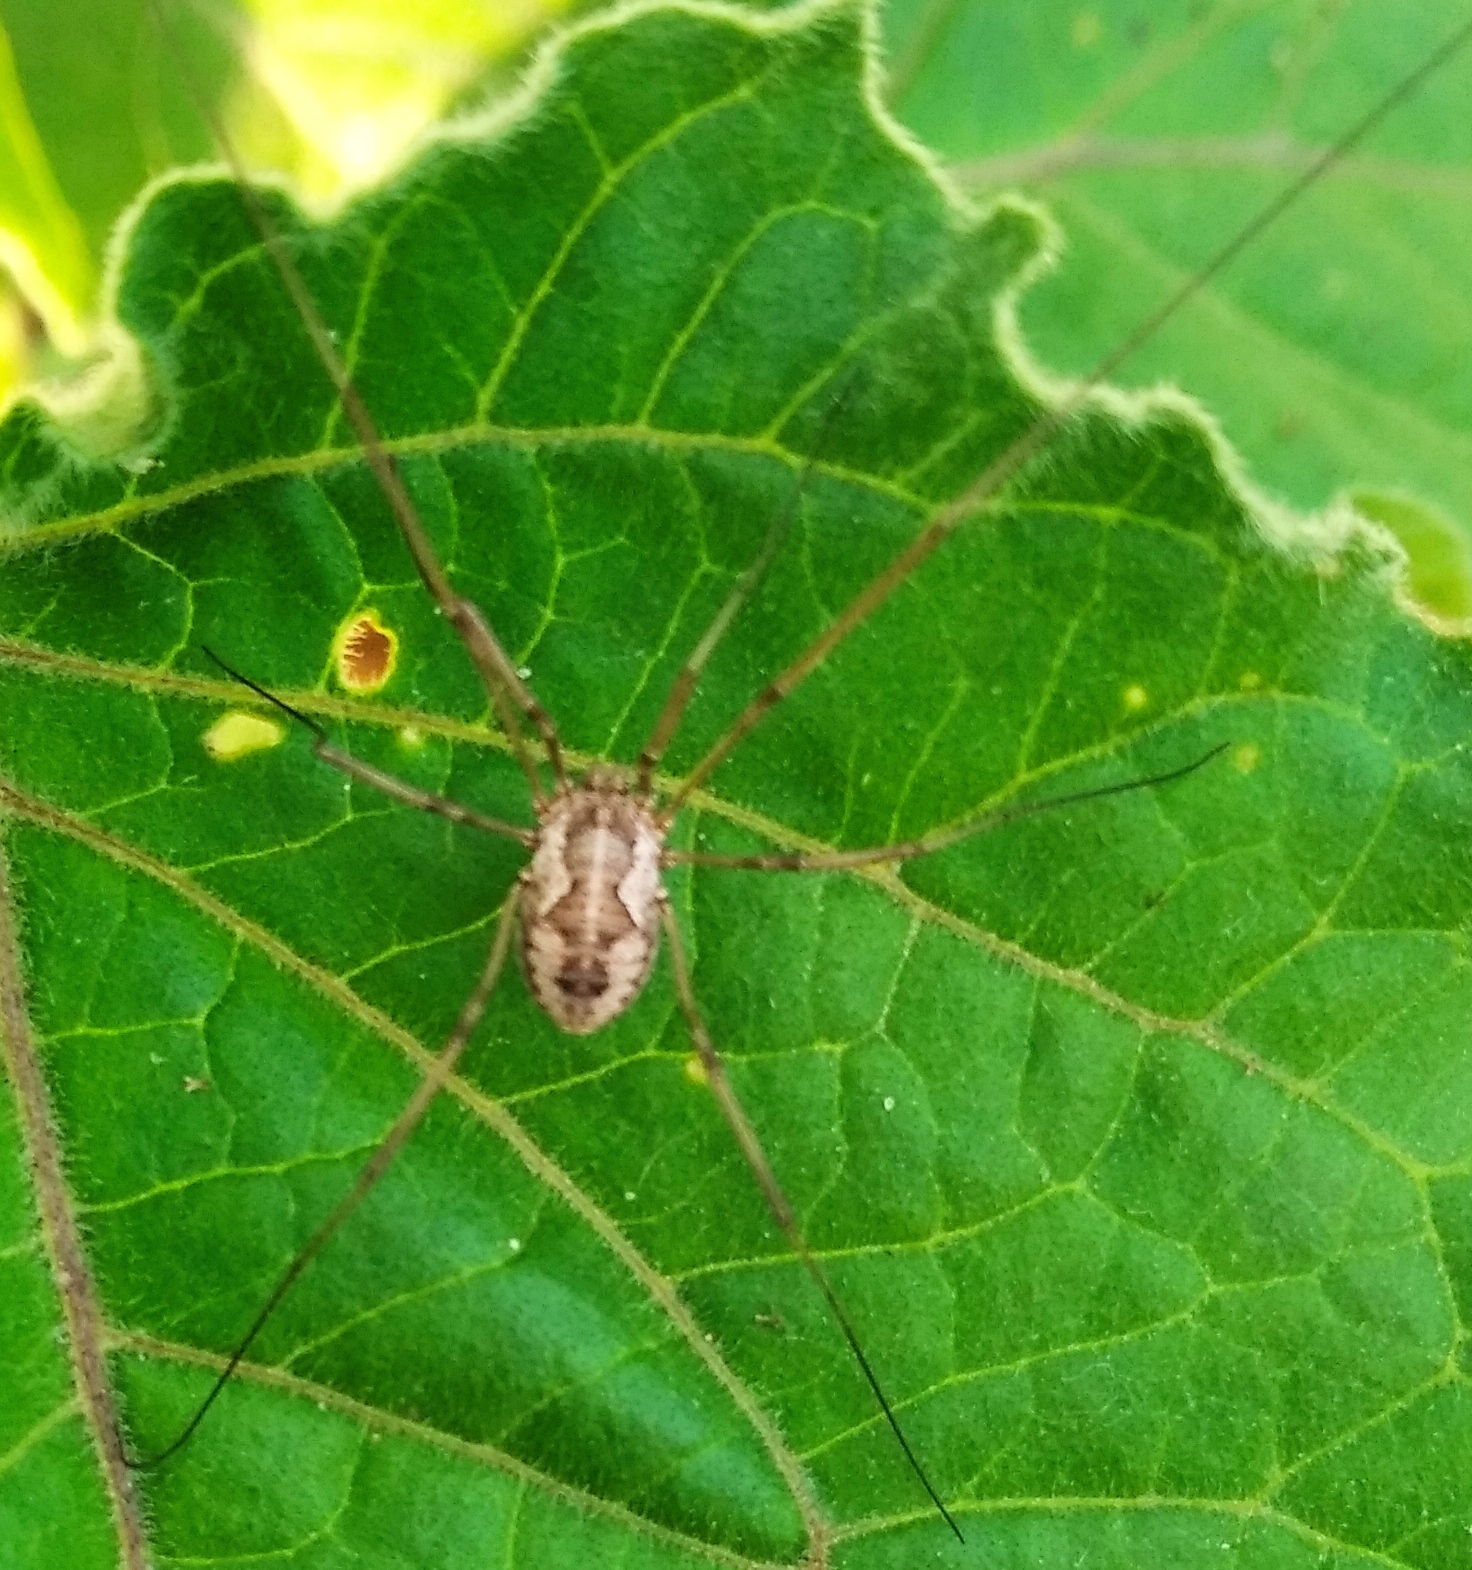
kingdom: Animalia
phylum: Arthropoda
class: Arachnida
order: Opiliones
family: Phalangiidae
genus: Phalangium
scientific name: Phalangium opilio
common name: Daddy longleg
